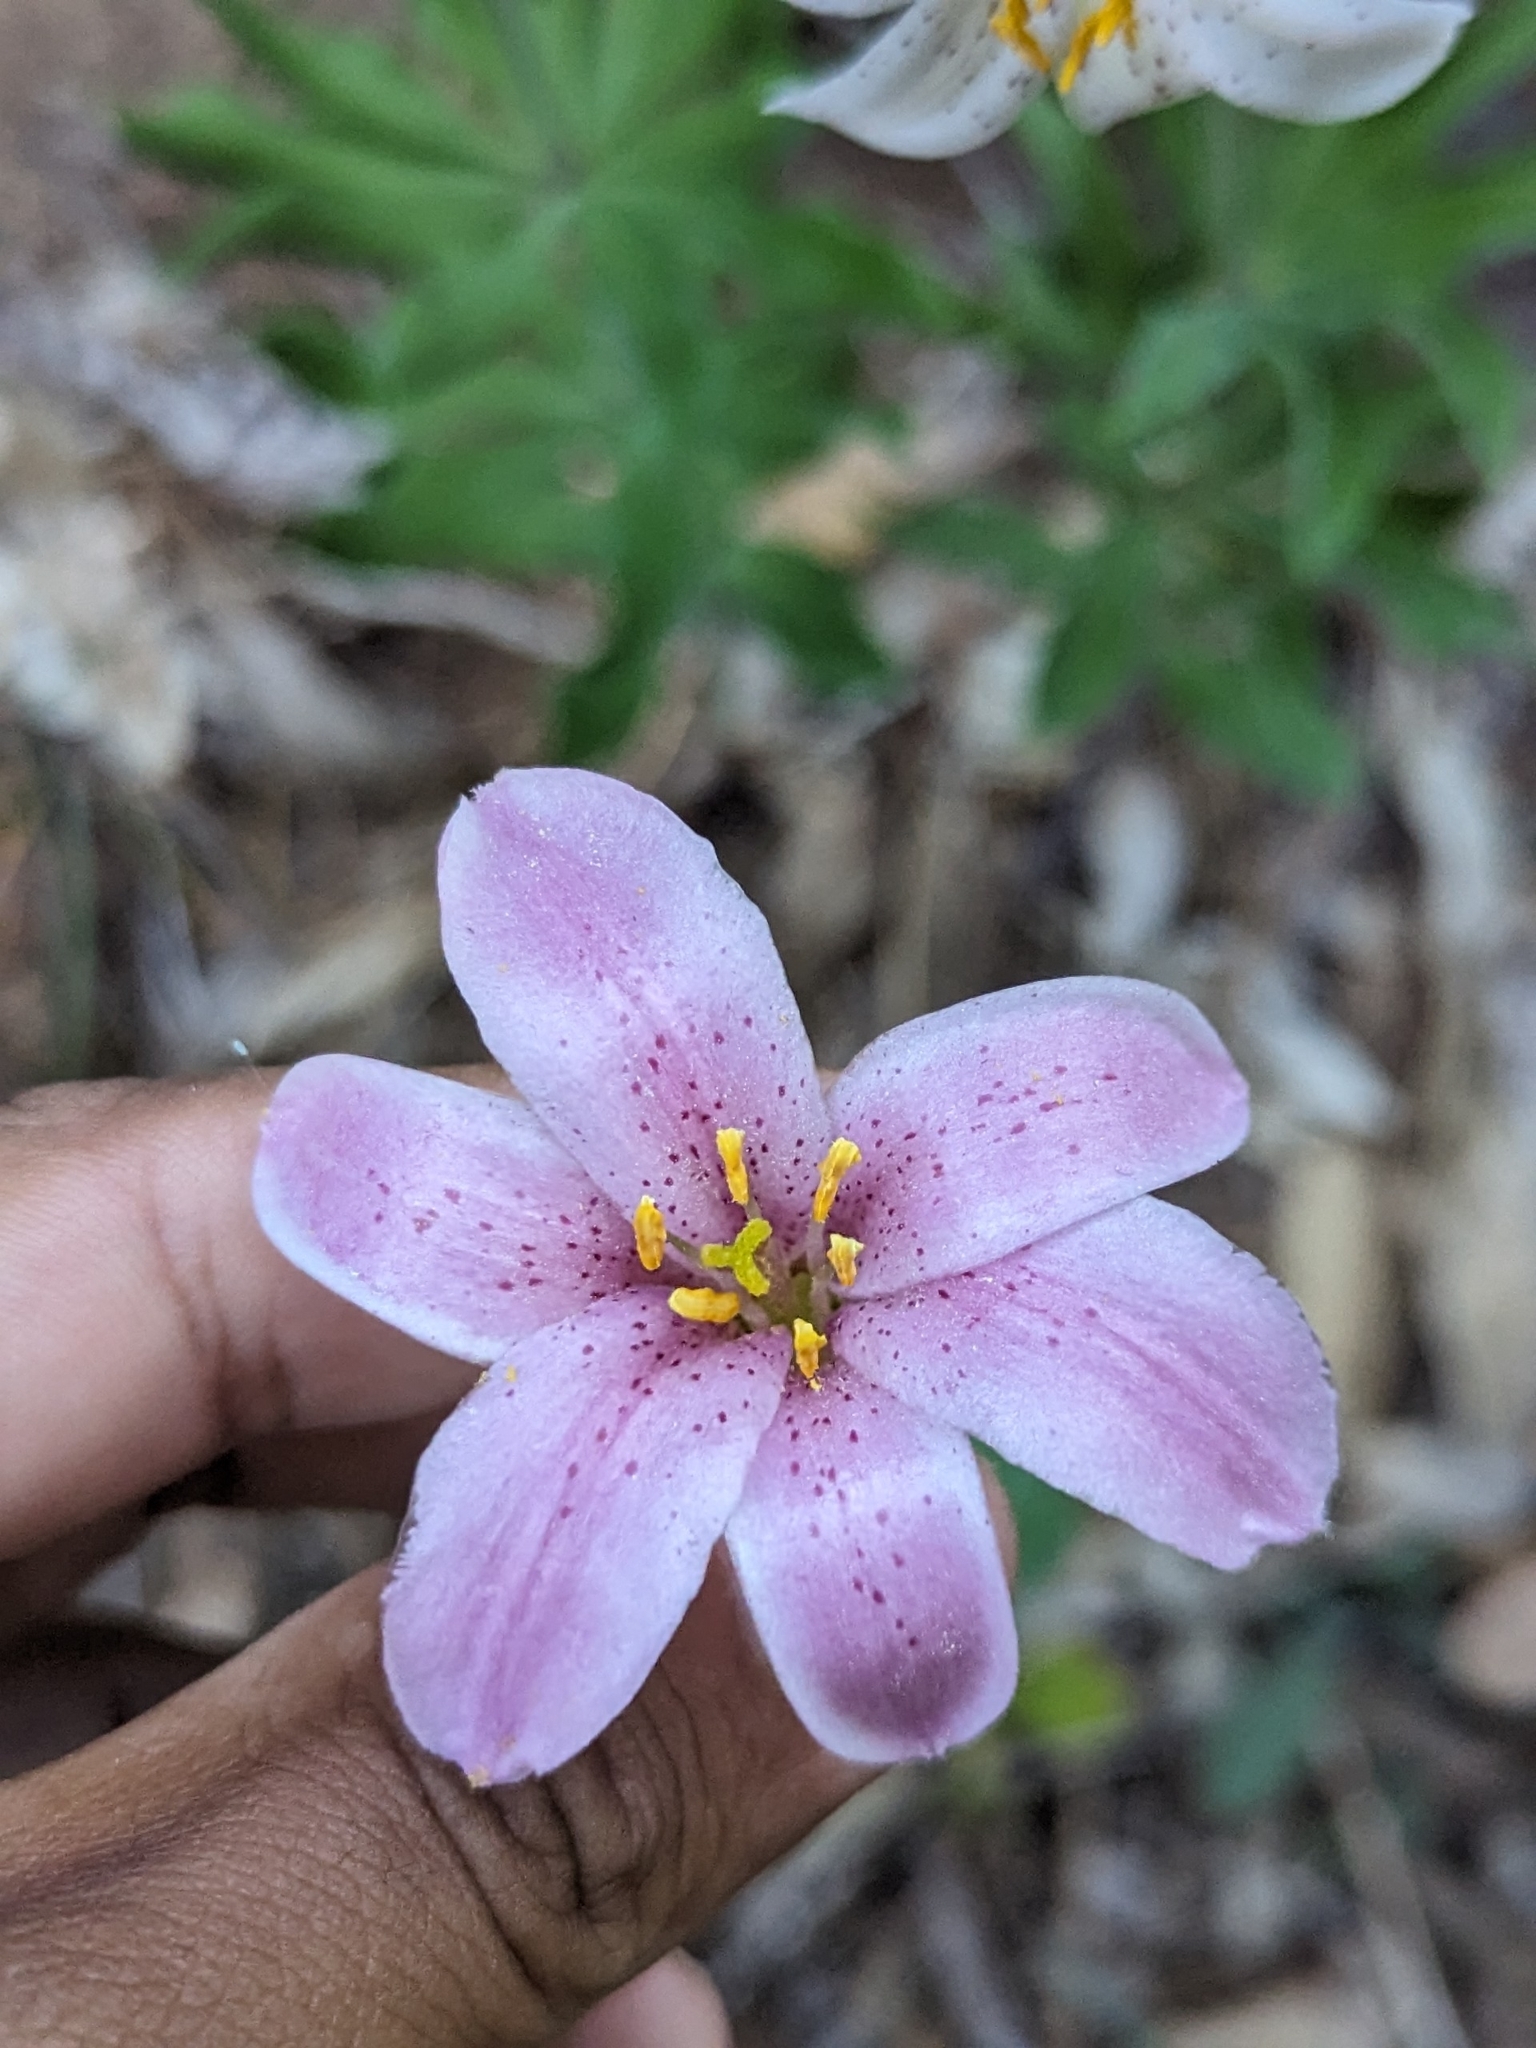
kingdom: Plantae
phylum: Tracheophyta
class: Liliopsida
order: Liliales
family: Liliaceae
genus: Lilium
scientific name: Lilium rubescens
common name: Chamise lily
